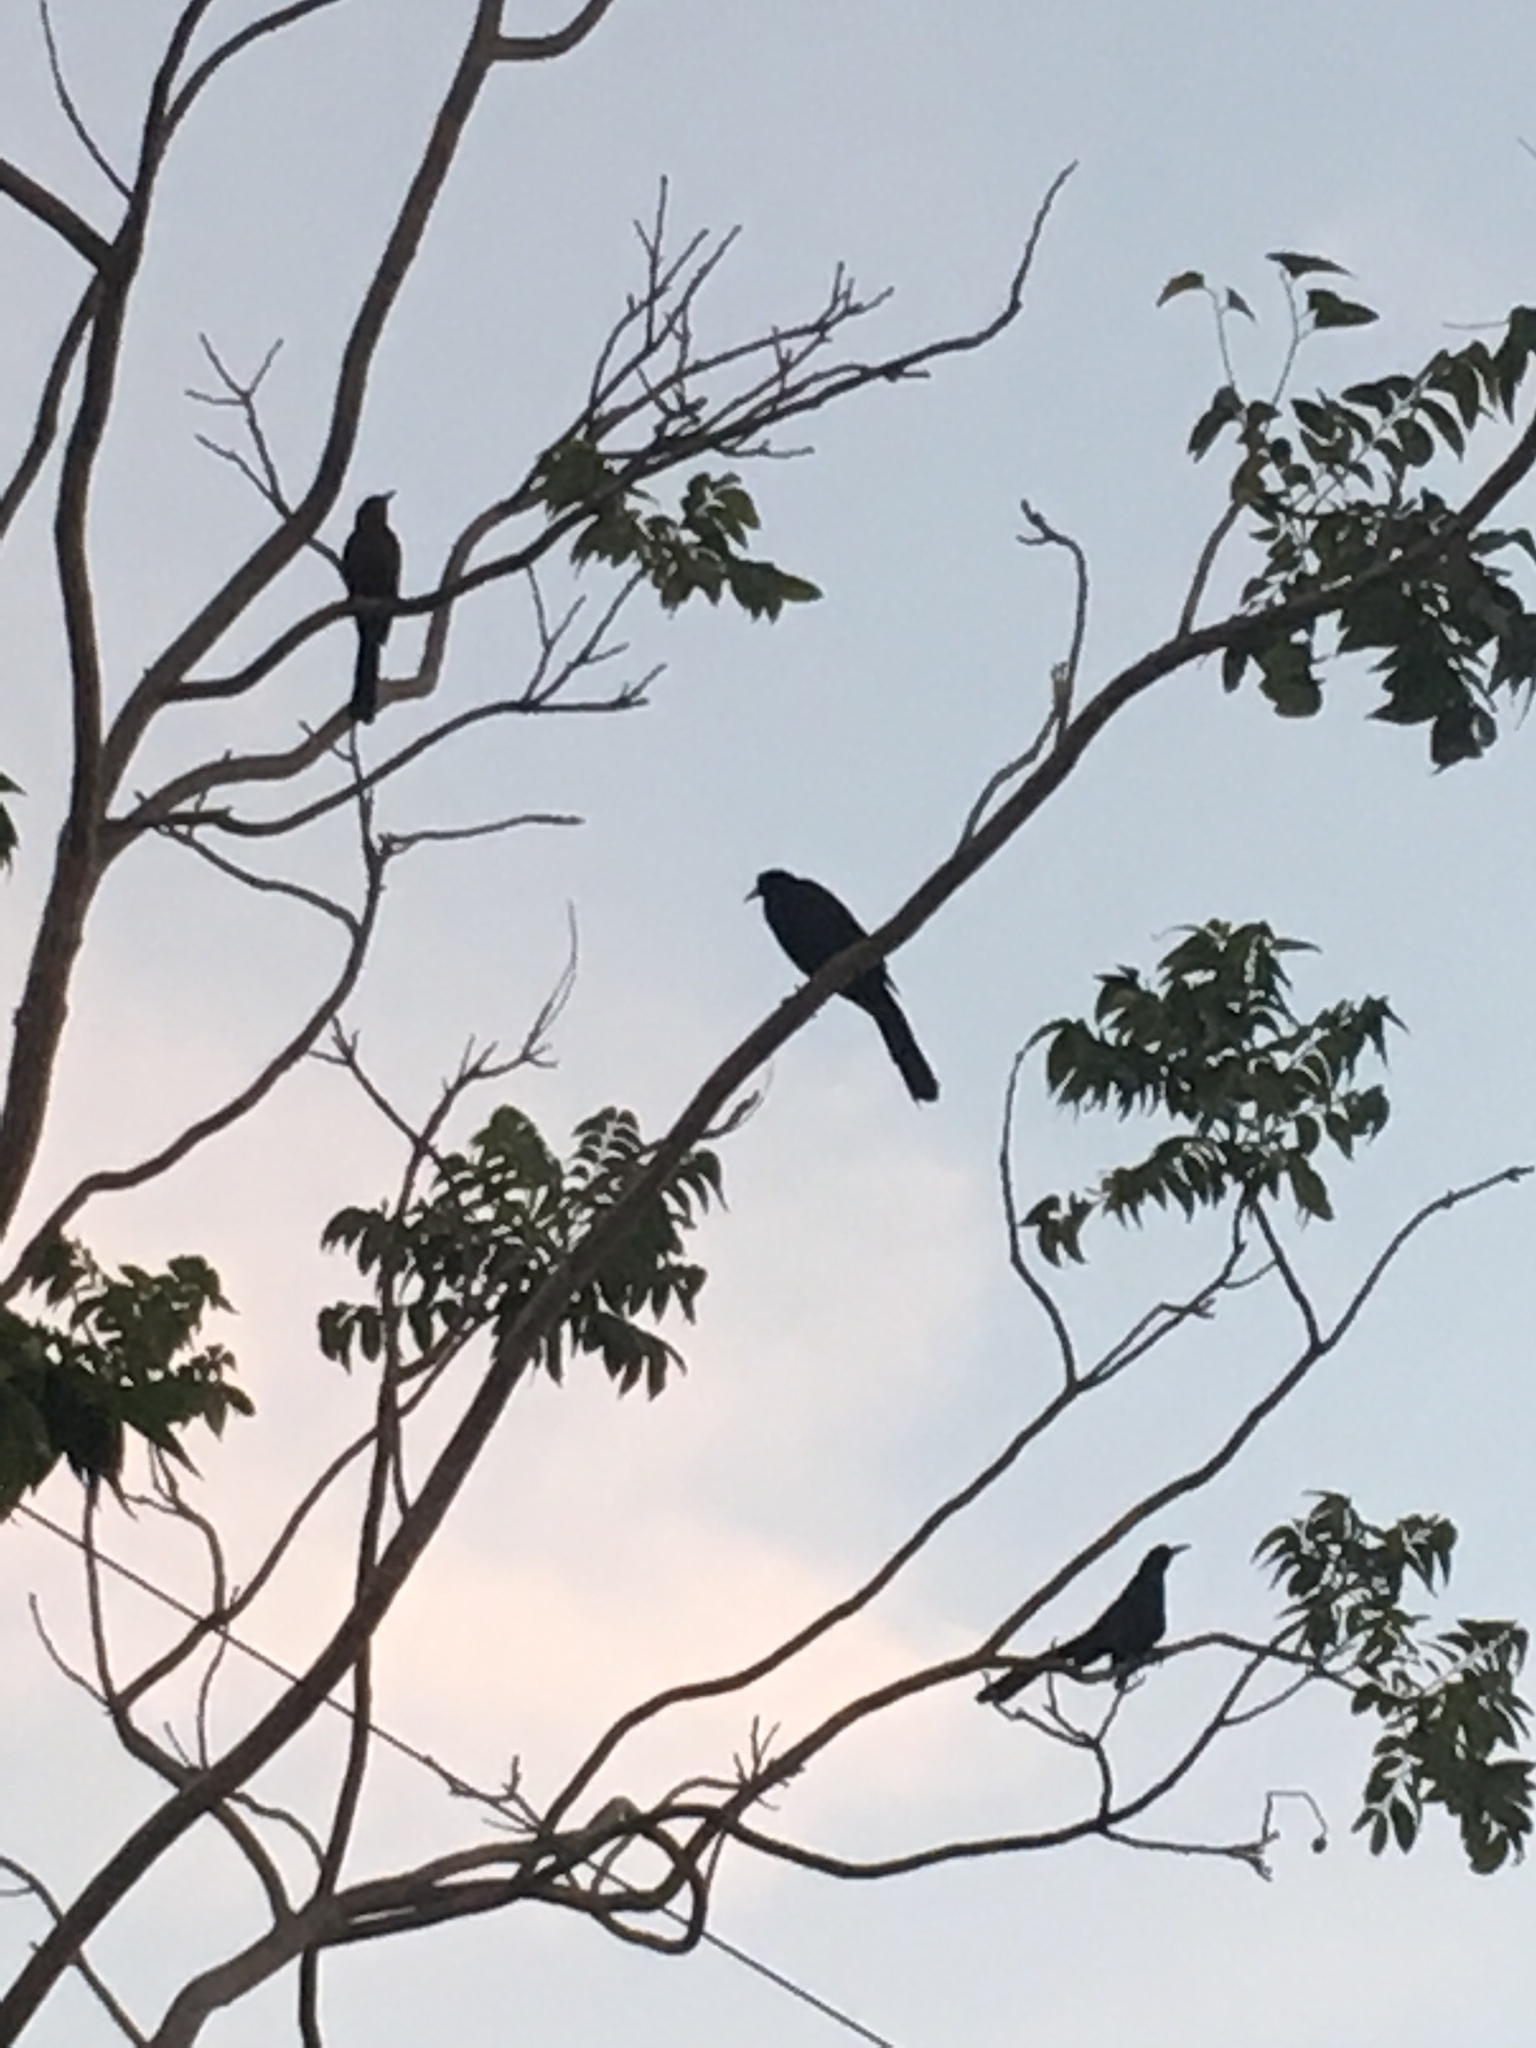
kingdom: Animalia
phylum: Chordata
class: Aves
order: Passeriformes
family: Icteridae
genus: Quiscalus
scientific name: Quiscalus mexicanus
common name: Great-tailed grackle
